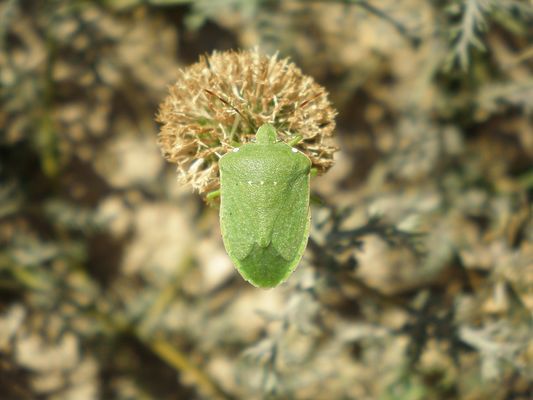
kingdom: Animalia
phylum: Arthropoda
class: Insecta
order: Hemiptera
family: Pentatomidae
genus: Nezara
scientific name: Nezara viridula
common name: Southern green stink bug
